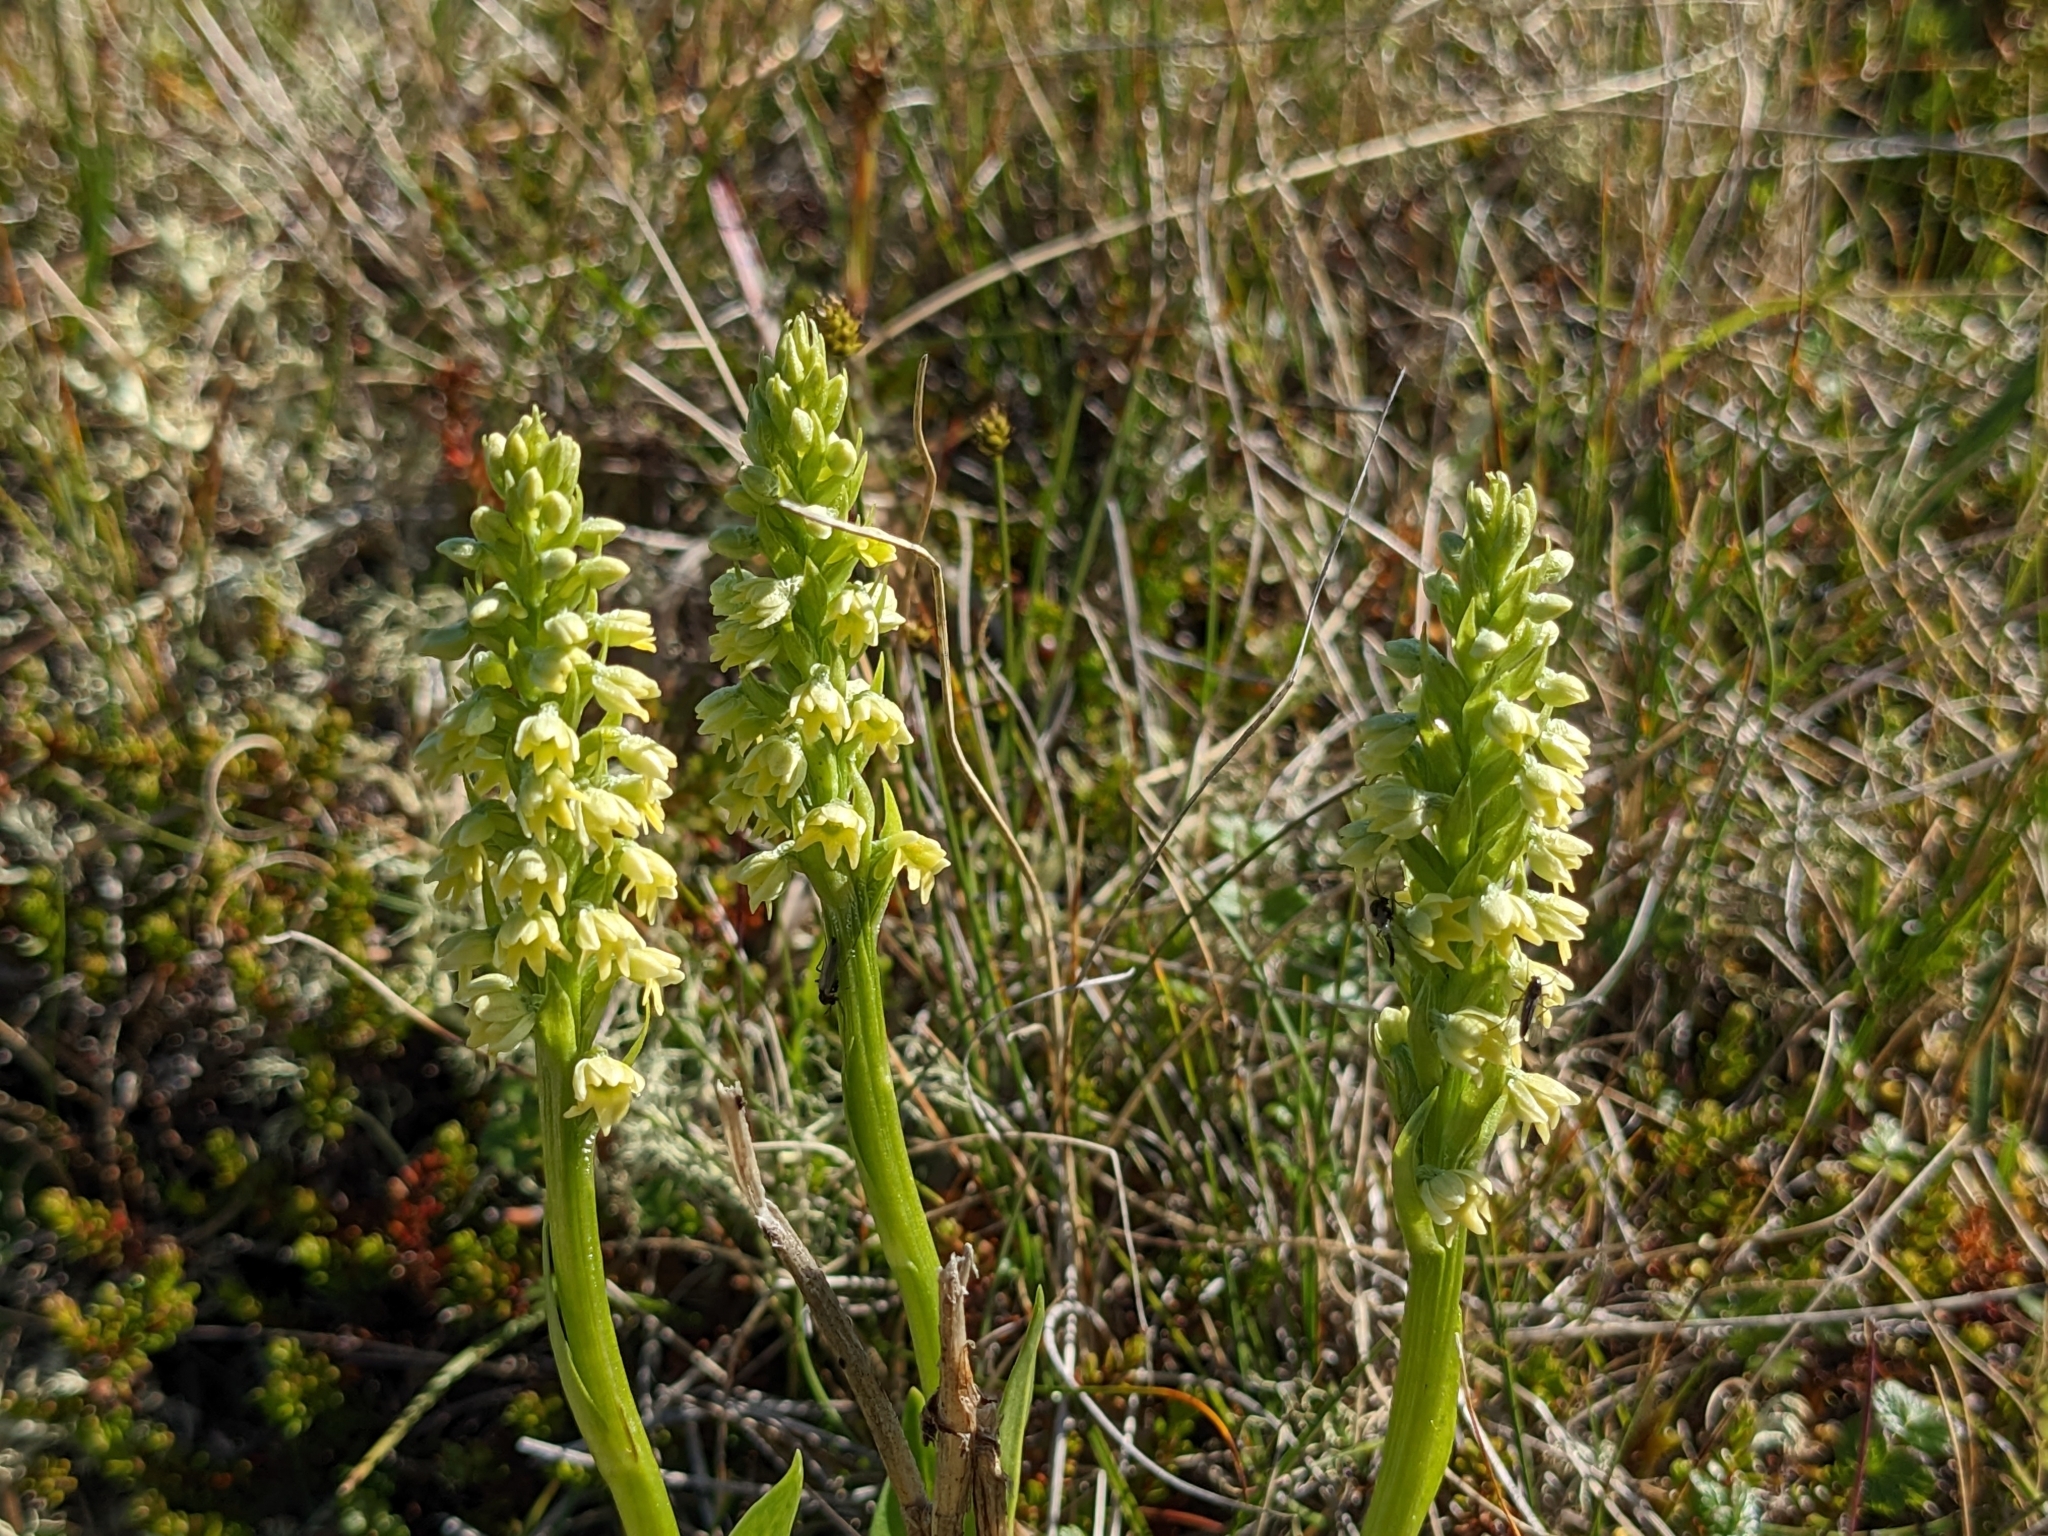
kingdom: Plantae
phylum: Tracheophyta
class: Liliopsida
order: Asparagales
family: Orchidaceae
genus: Pseudorchis
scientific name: Pseudorchis albida
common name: Small-white orchid
